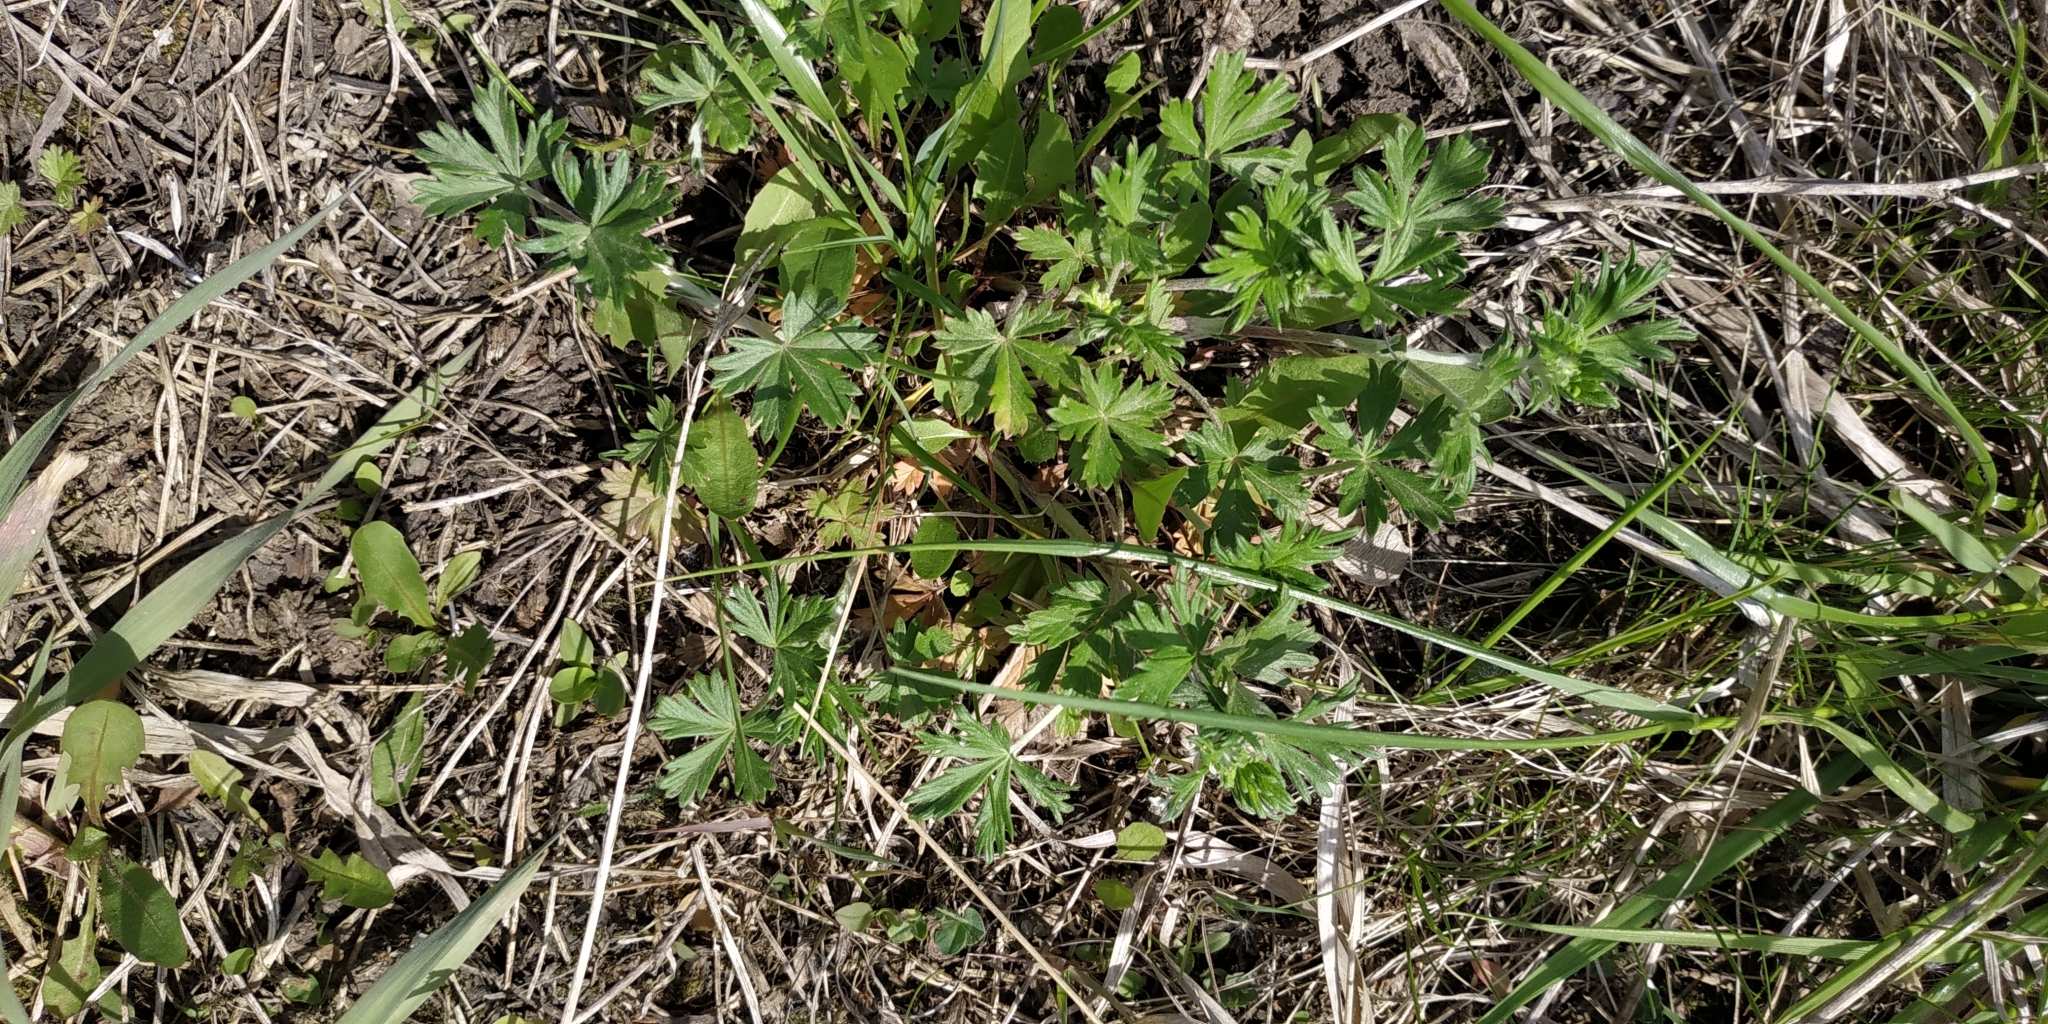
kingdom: Plantae
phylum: Tracheophyta
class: Magnoliopsida
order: Rosales
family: Rosaceae
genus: Potentilla
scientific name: Potentilla argentea
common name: Hoary cinquefoil
